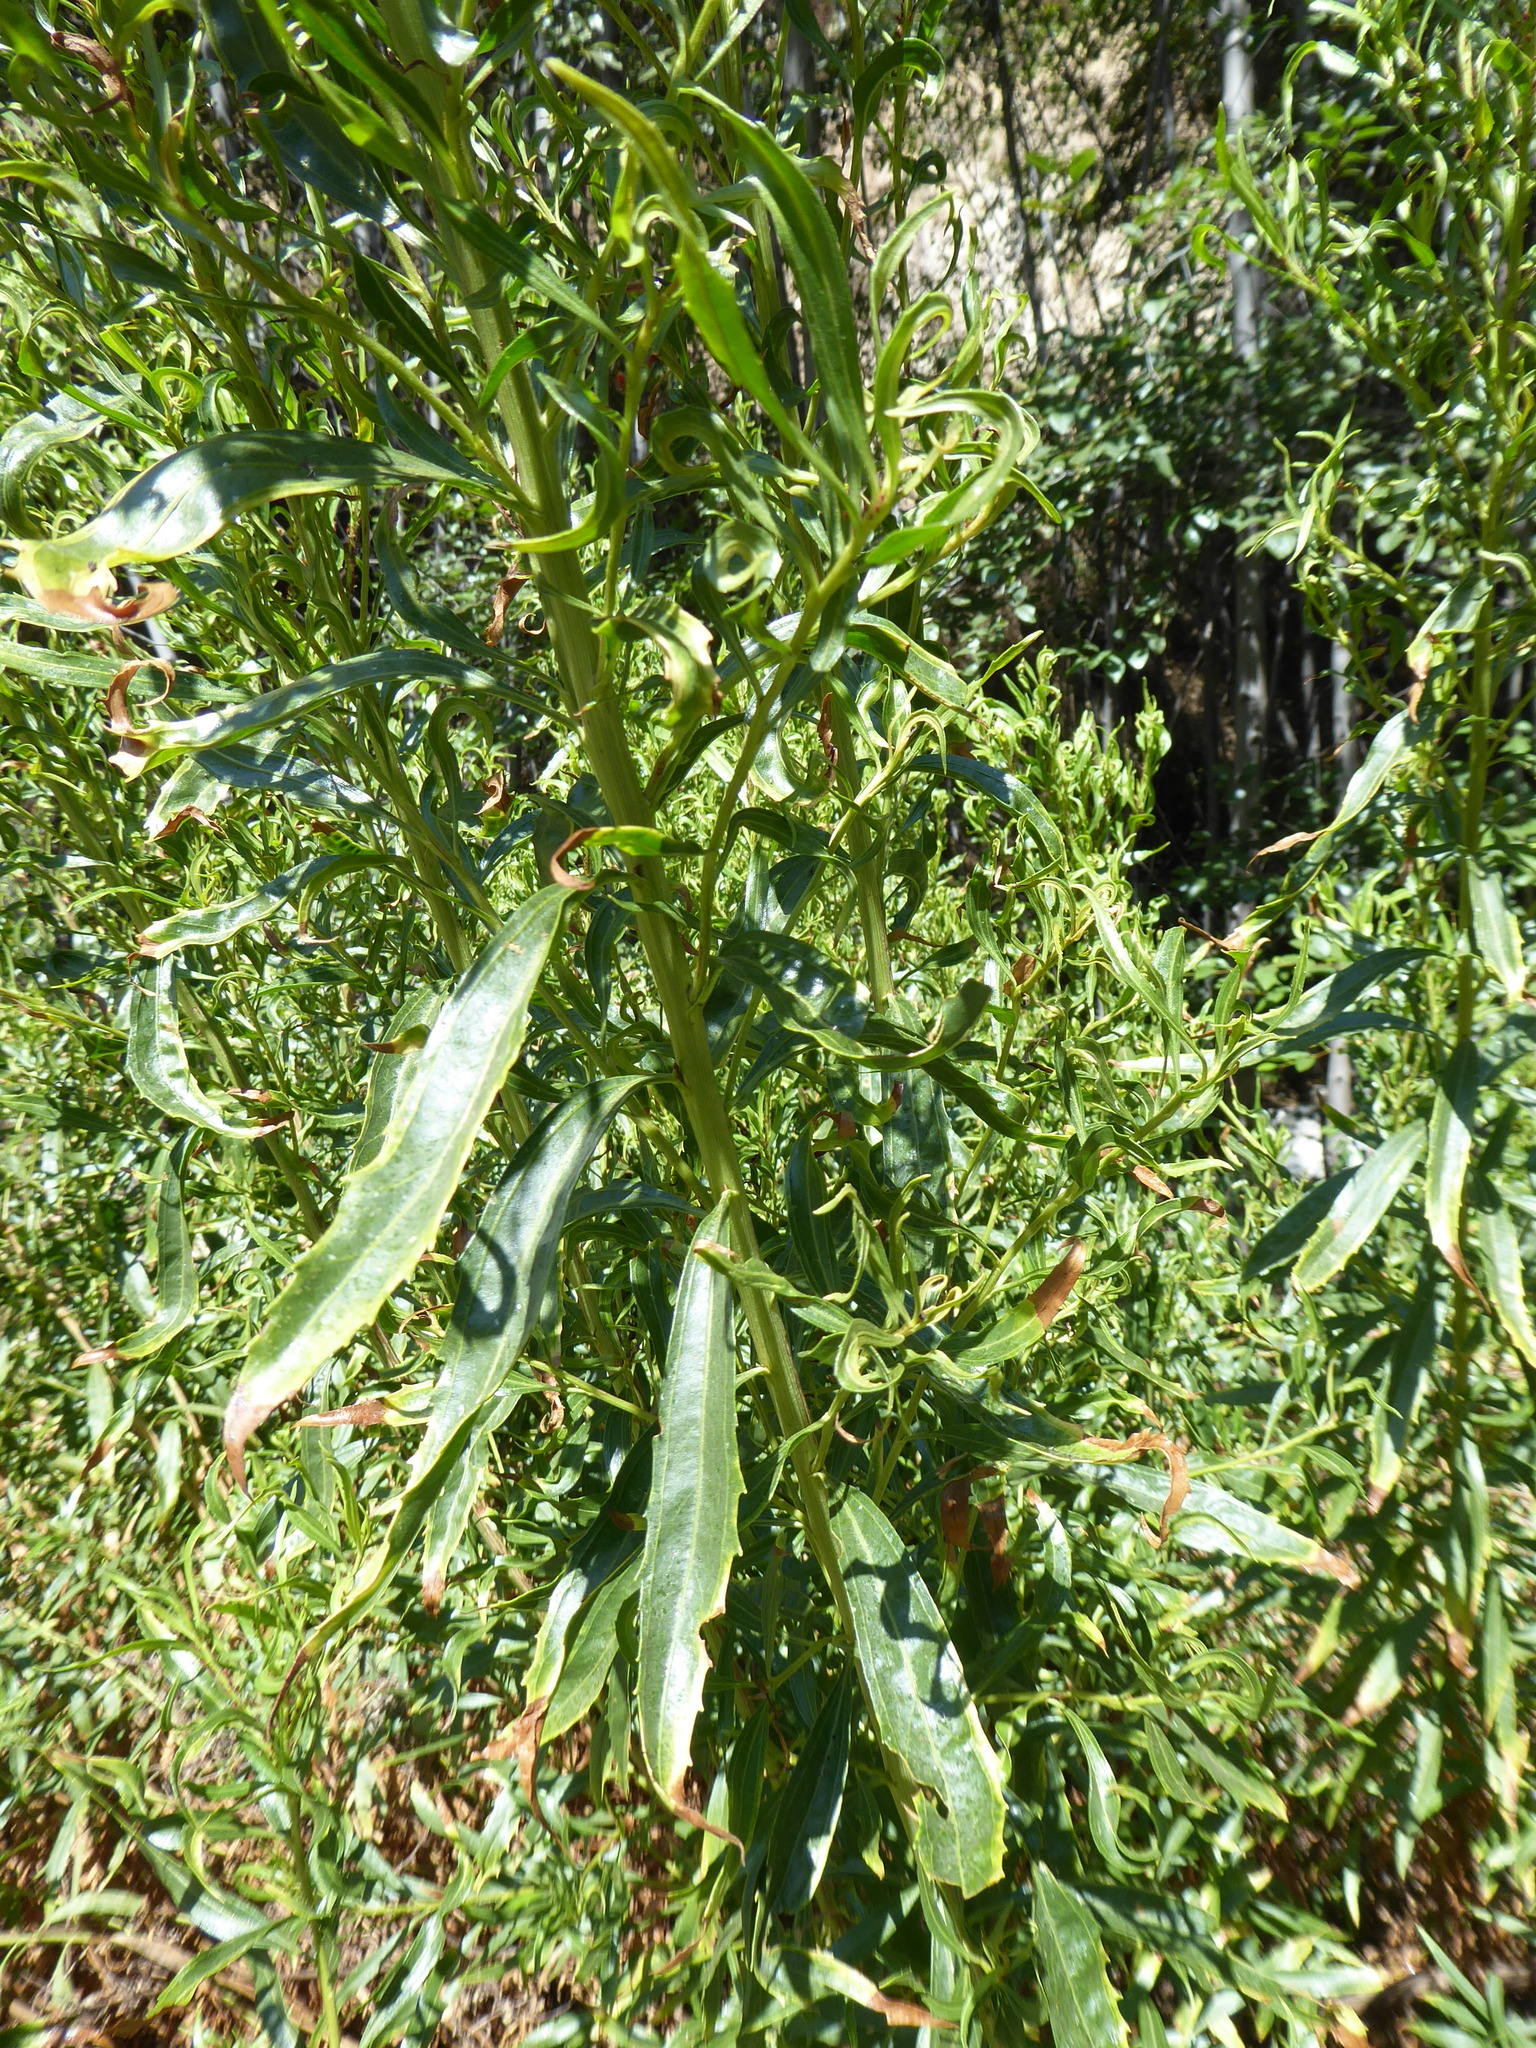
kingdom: Plantae
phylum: Tracheophyta
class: Magnoliopsida
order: Asterales
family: Asteraceae
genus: Baccharis
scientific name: Baccharis salicifolia
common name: Sticky baccharis
